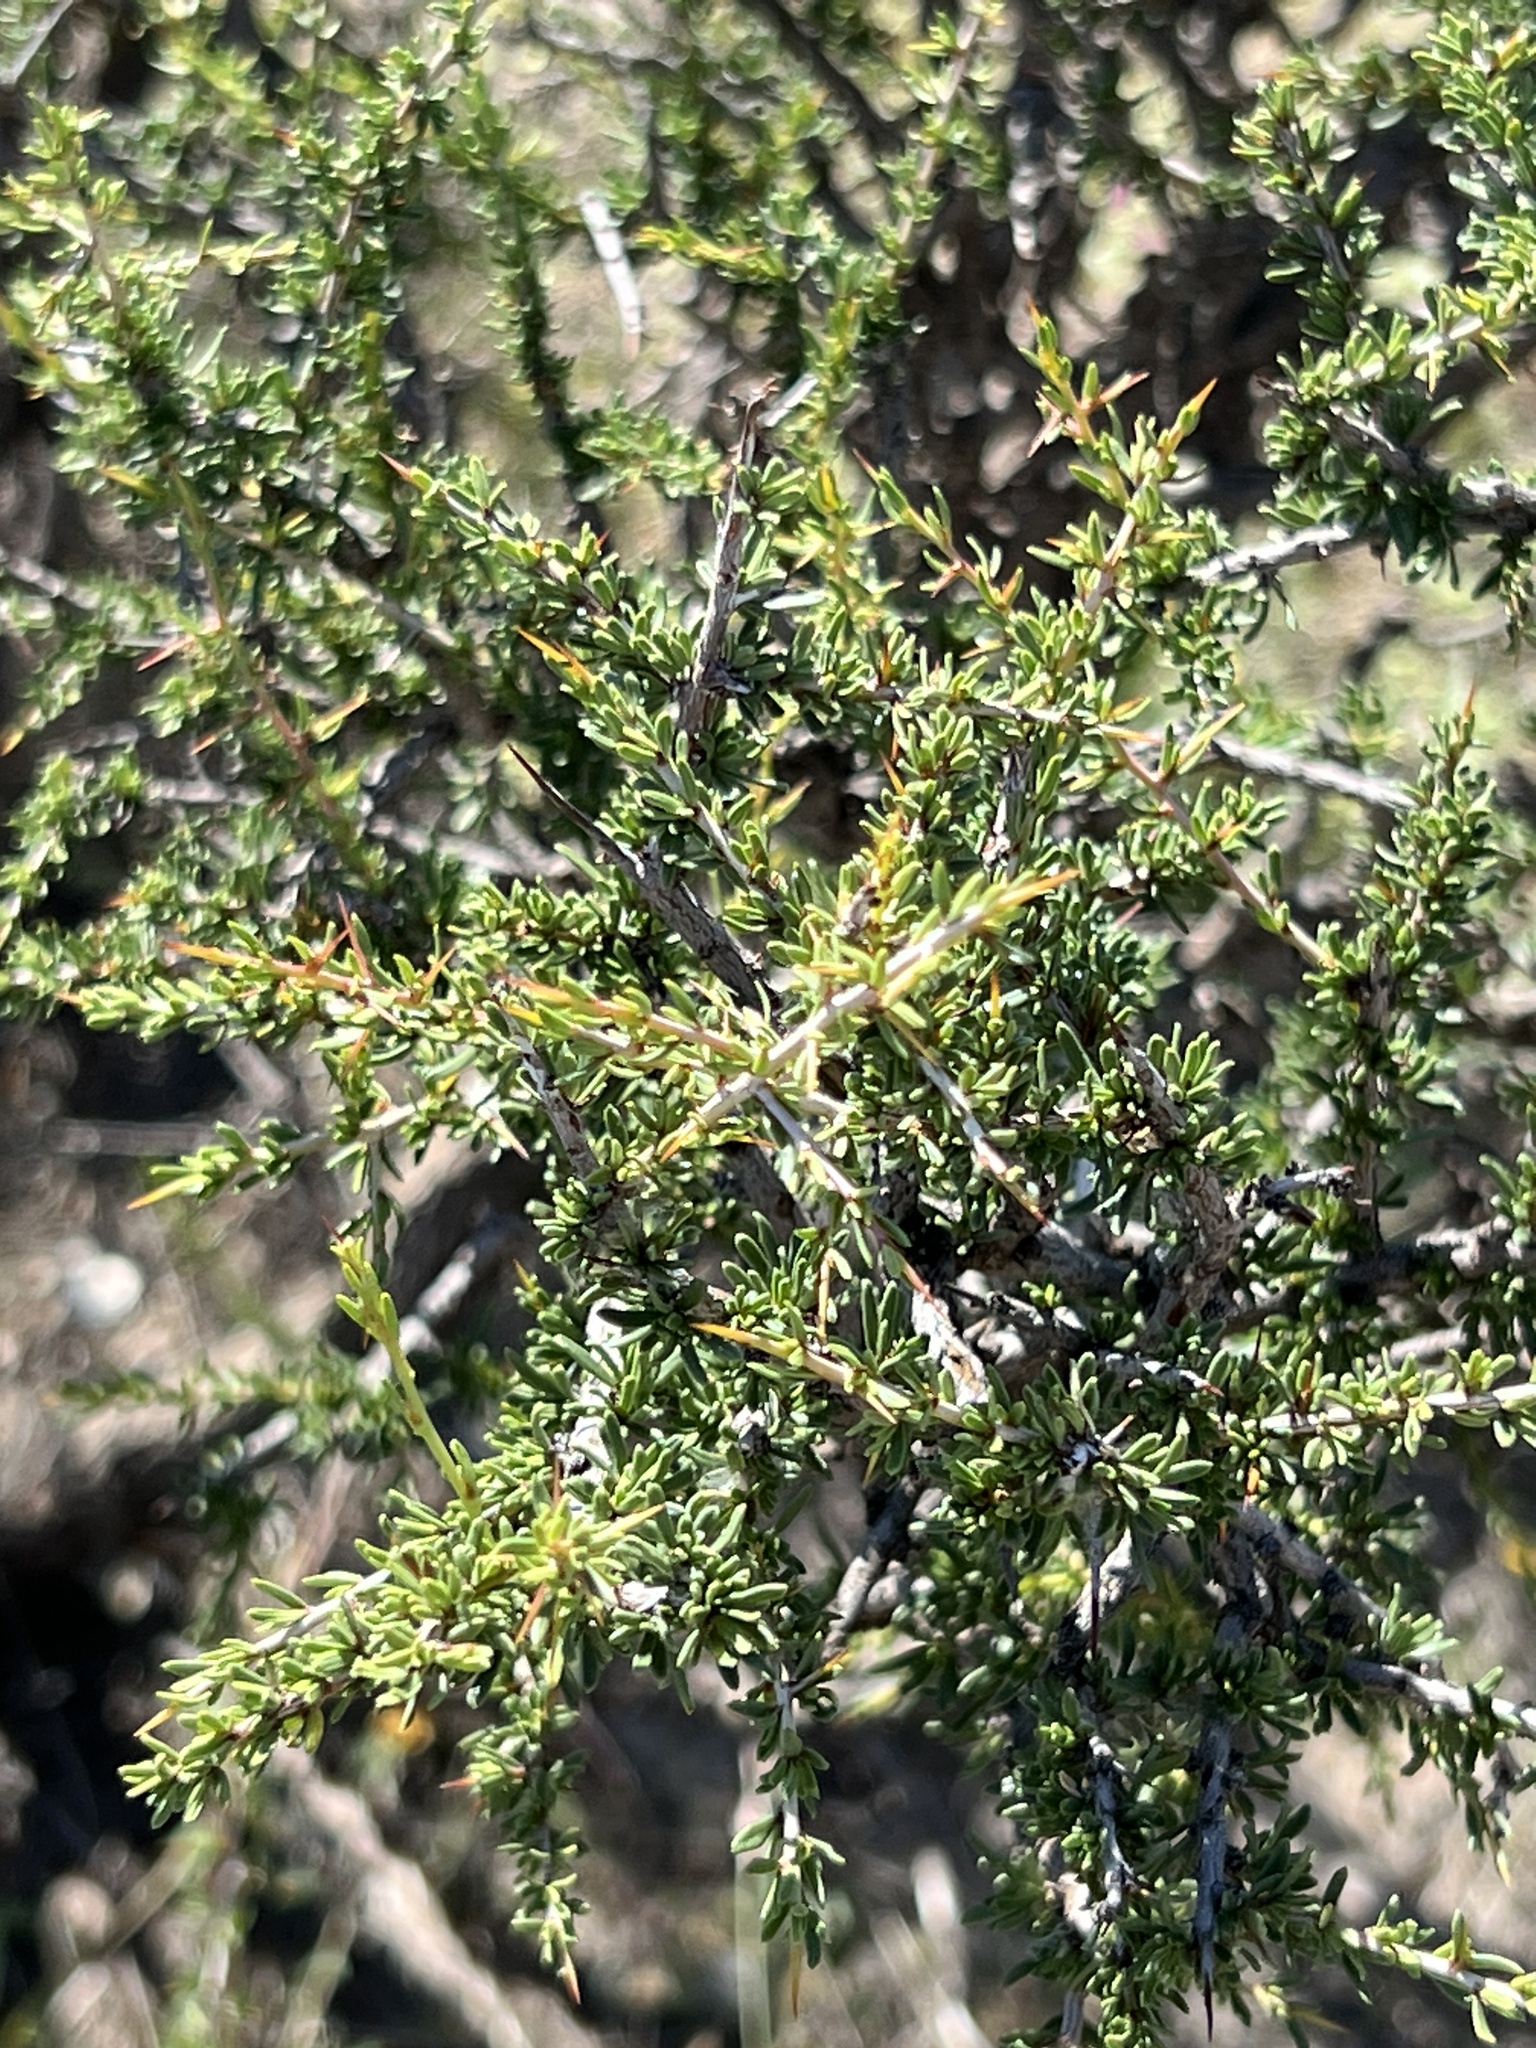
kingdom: Plantae
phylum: Tracheophyta
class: Magnoliopsida
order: Rosales
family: Rhamnaceae
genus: Condalia
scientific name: Condalia ericoides
